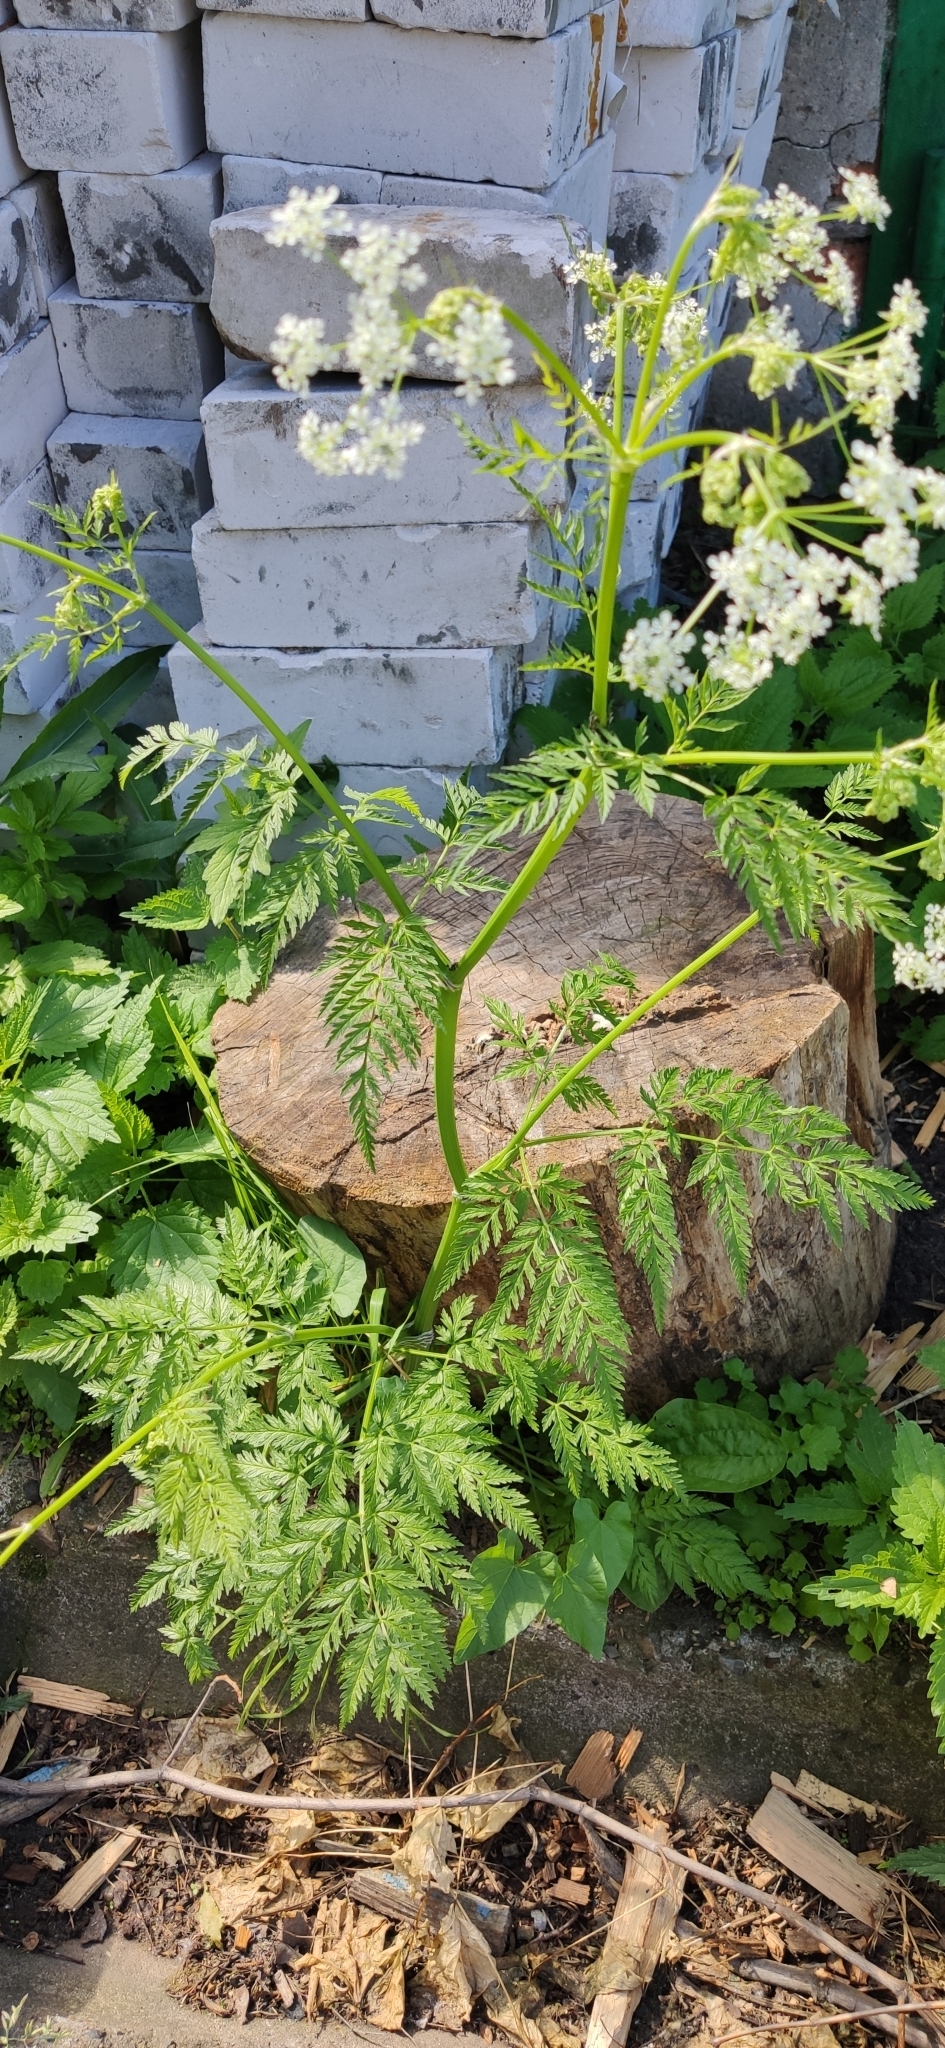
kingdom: Plantae
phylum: Tracheophyta
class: Magnoliopsida
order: Apiales
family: Apiaceae
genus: Anthriscus
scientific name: Anthriscus sylvestris
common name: Cow parsley
